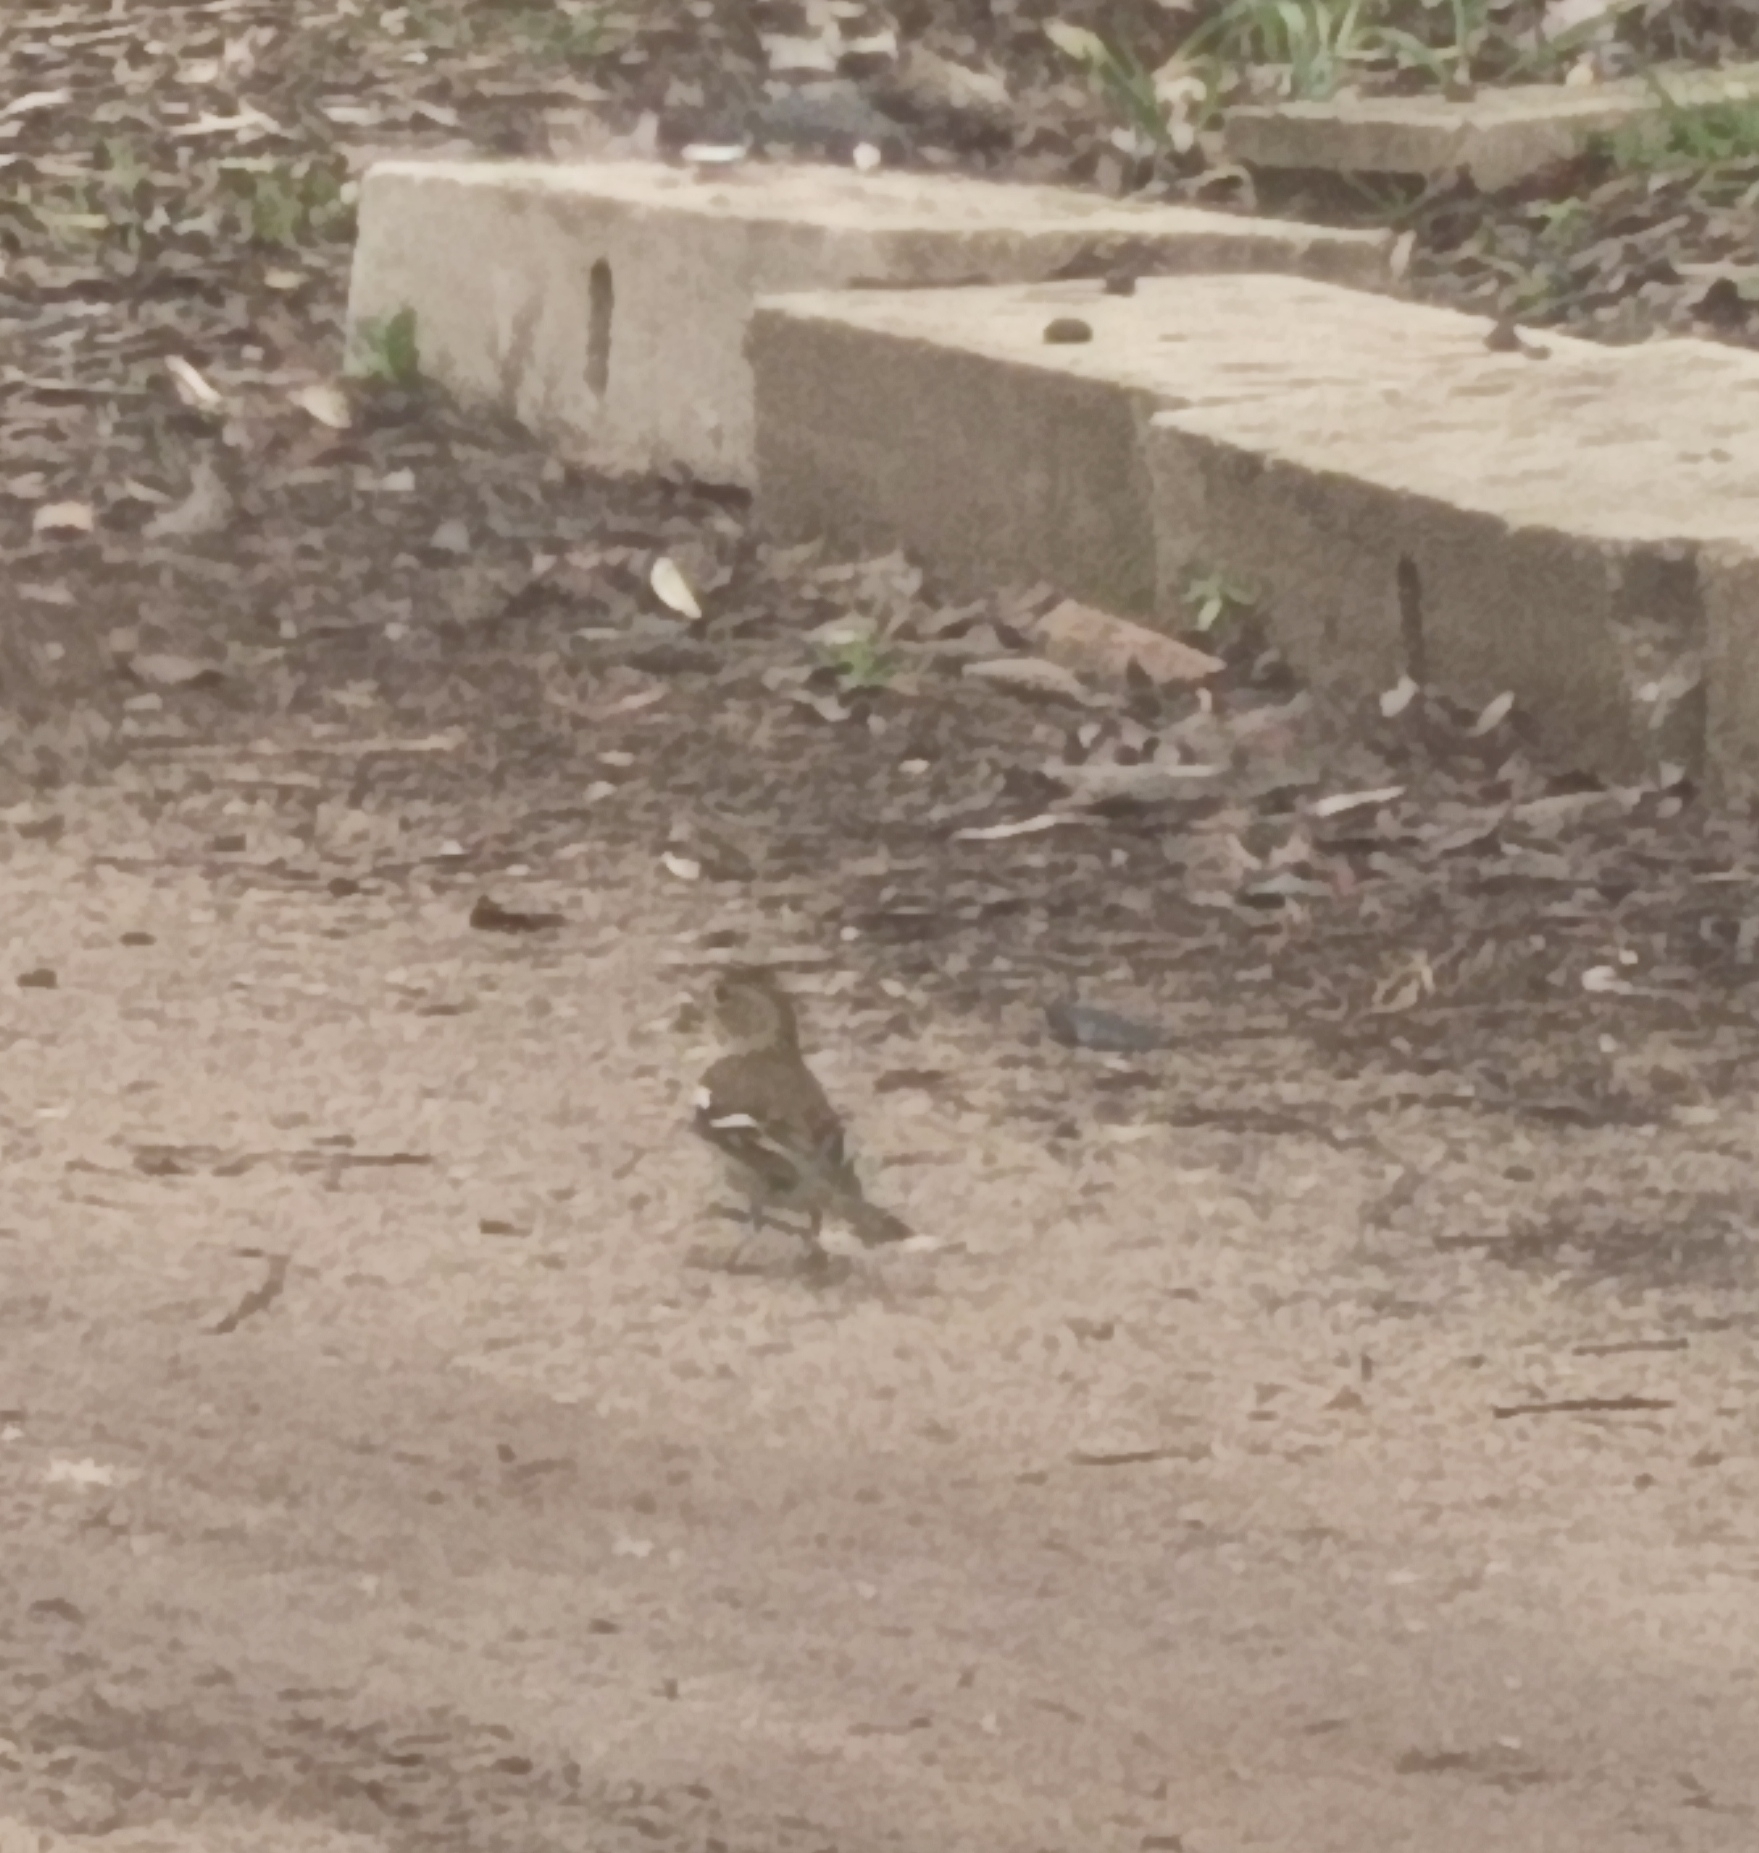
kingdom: Animalia
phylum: Chordata
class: Aves
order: Passeriformes
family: Fringillidae
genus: Fringilla
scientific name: Fringilla coelebs
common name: Common chaffinch
